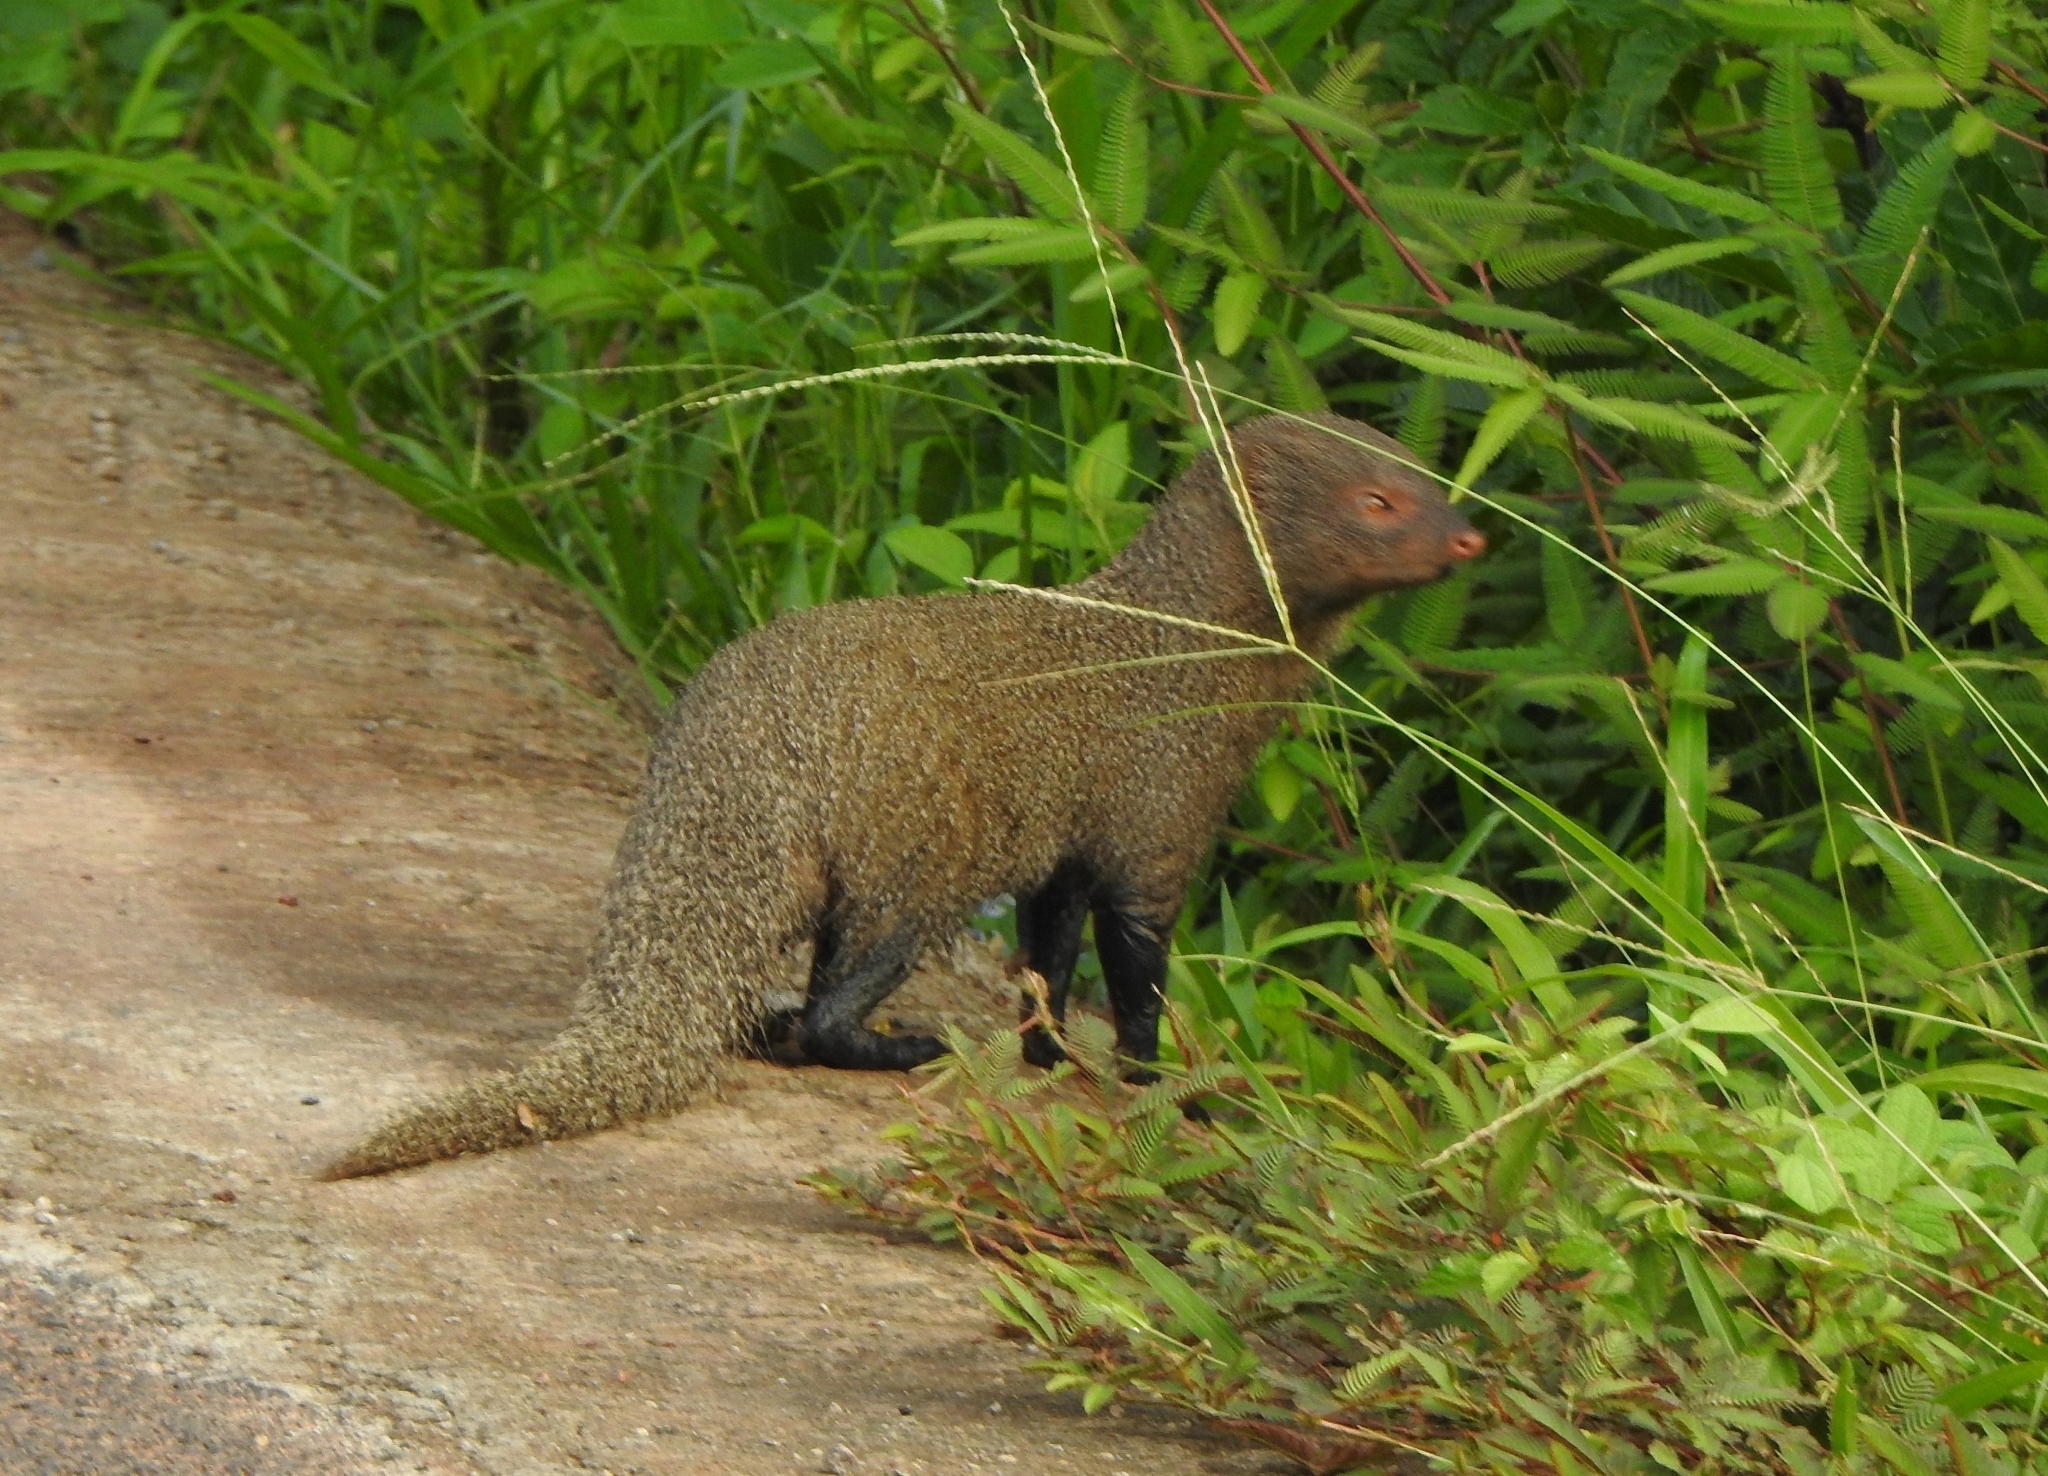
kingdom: Animalia
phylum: Chordata
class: Mammalia
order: Carnivora
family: Herpestidae
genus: Herpestes
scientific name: Herpestes edwardsi
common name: Indian gray mongoose
